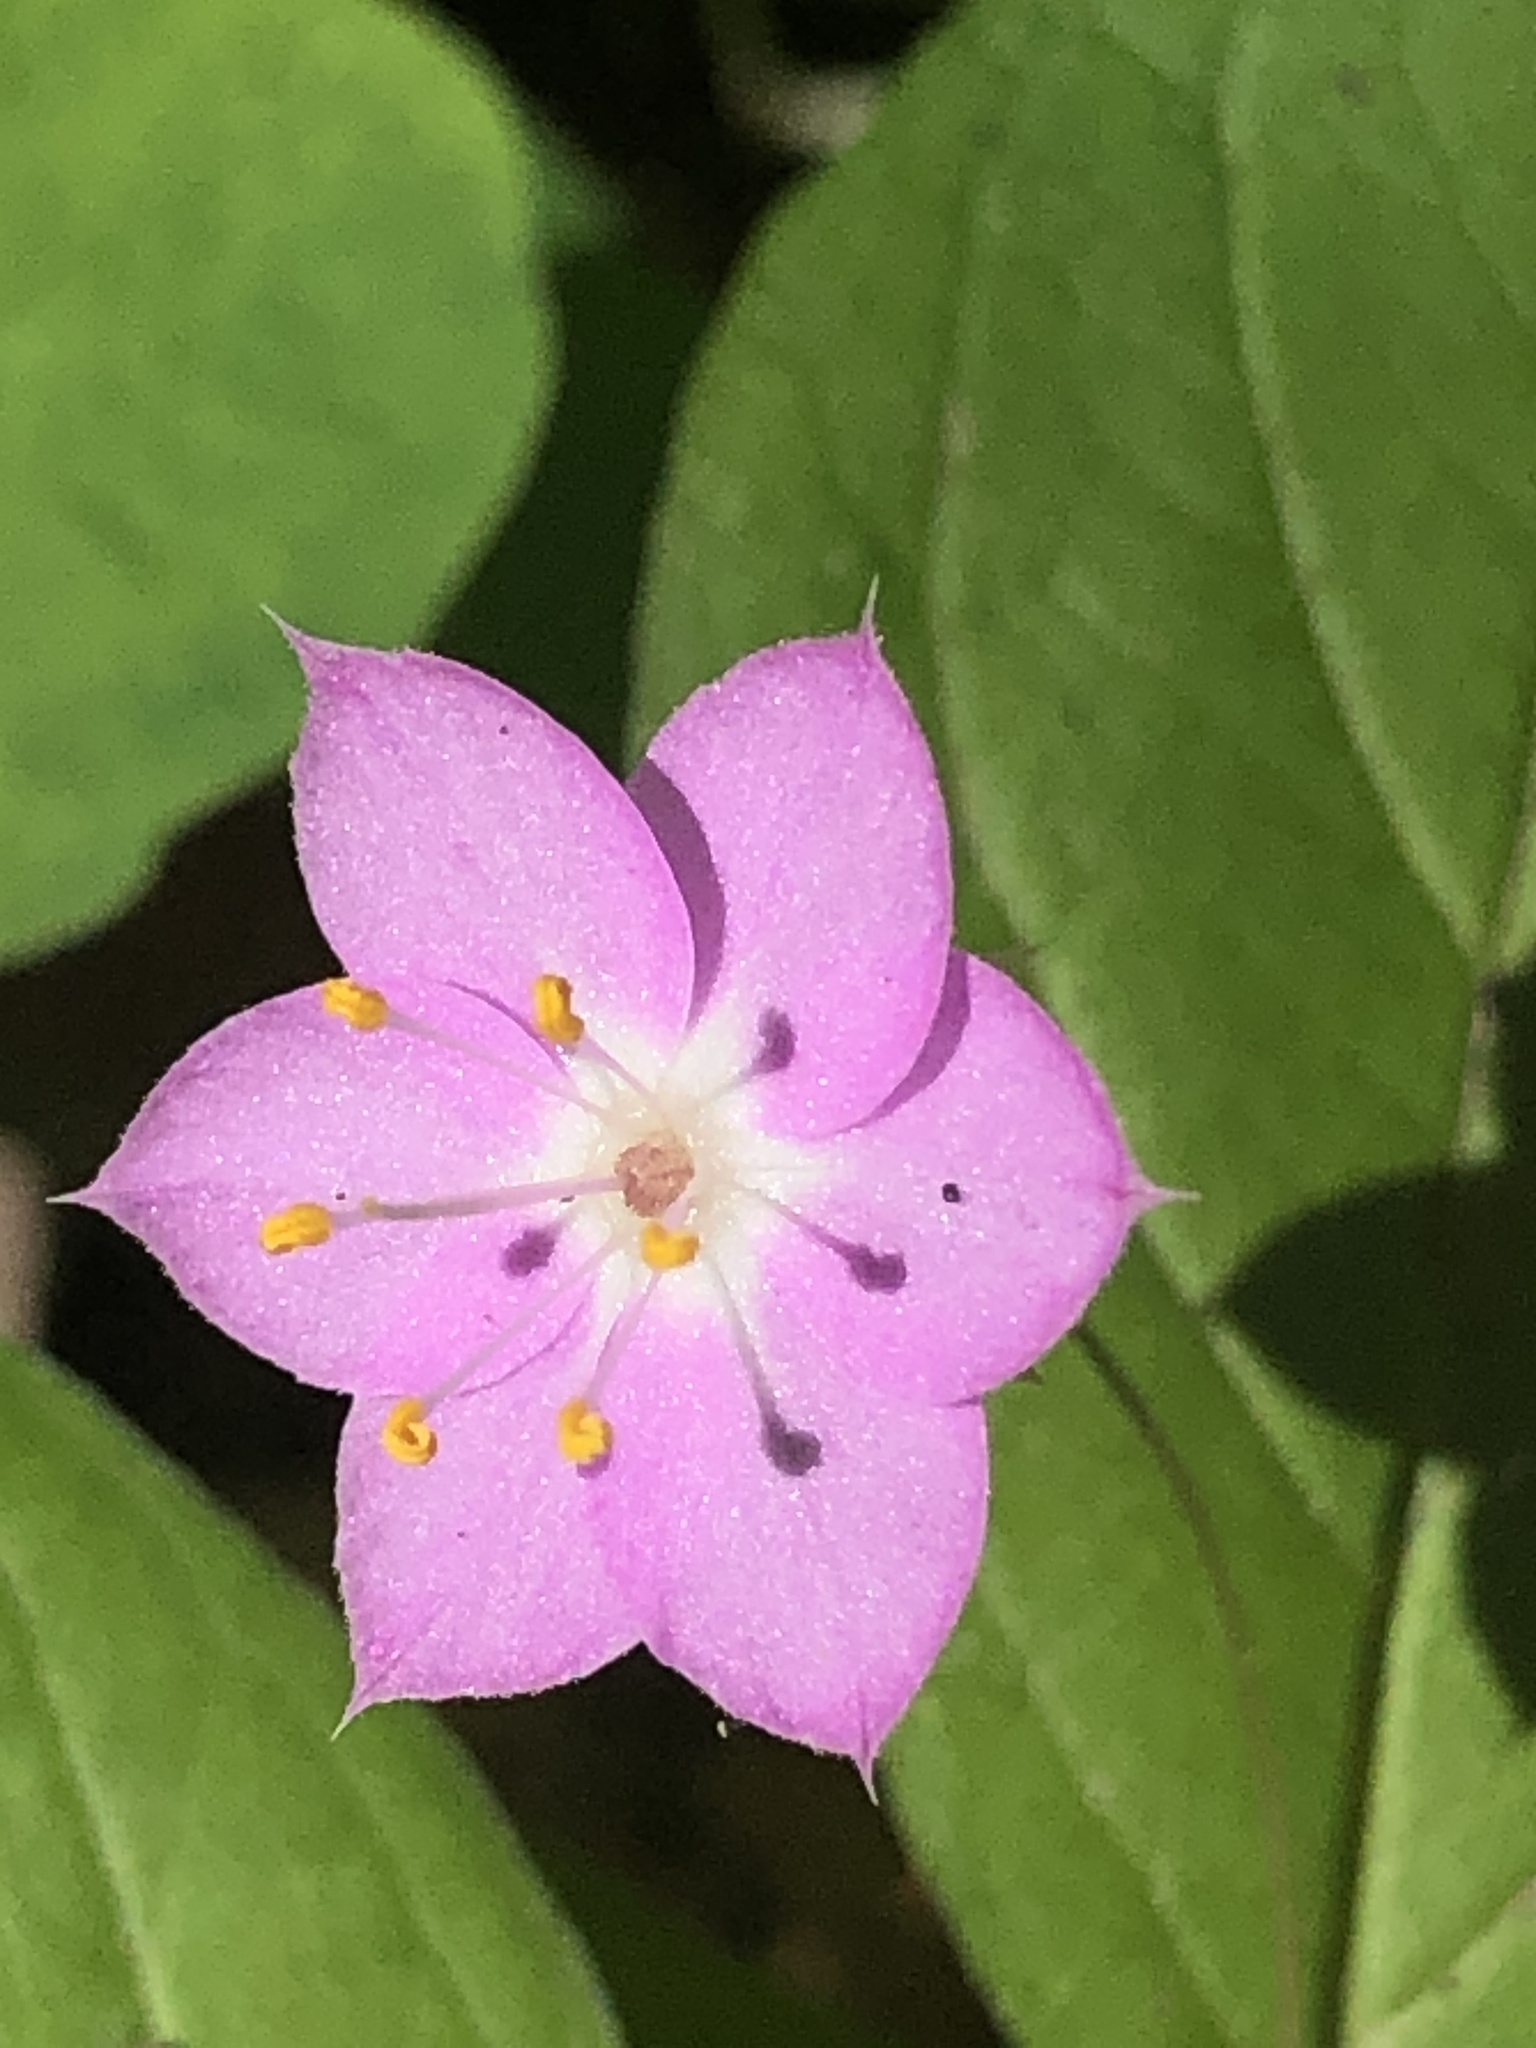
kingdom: Plantae
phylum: Tracheophyta
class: Magnoliopsida
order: Ericales
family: Primulaceae
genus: Lysimachia
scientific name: Lysimachia latifolia
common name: Pacific starflower
